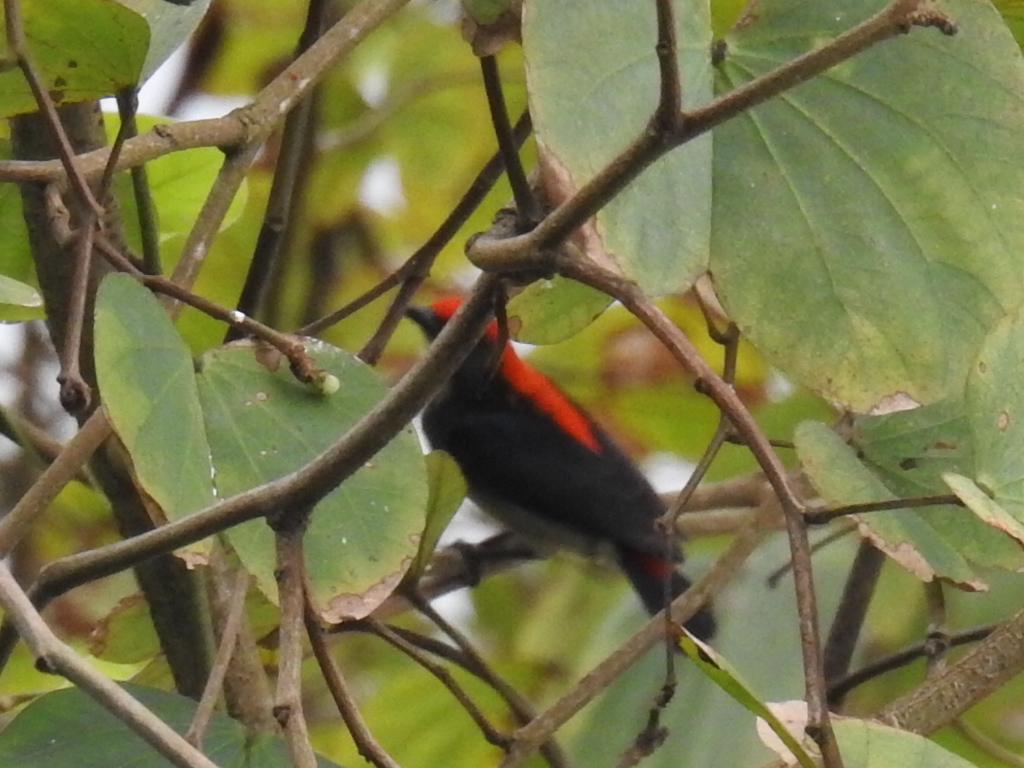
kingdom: Animalia
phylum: Chordata
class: Aves
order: Passeriformes
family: Dicaeidae
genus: Dicaeum
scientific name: Dicaeum cruentatum
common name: Scarlet-backed flowerpecker
